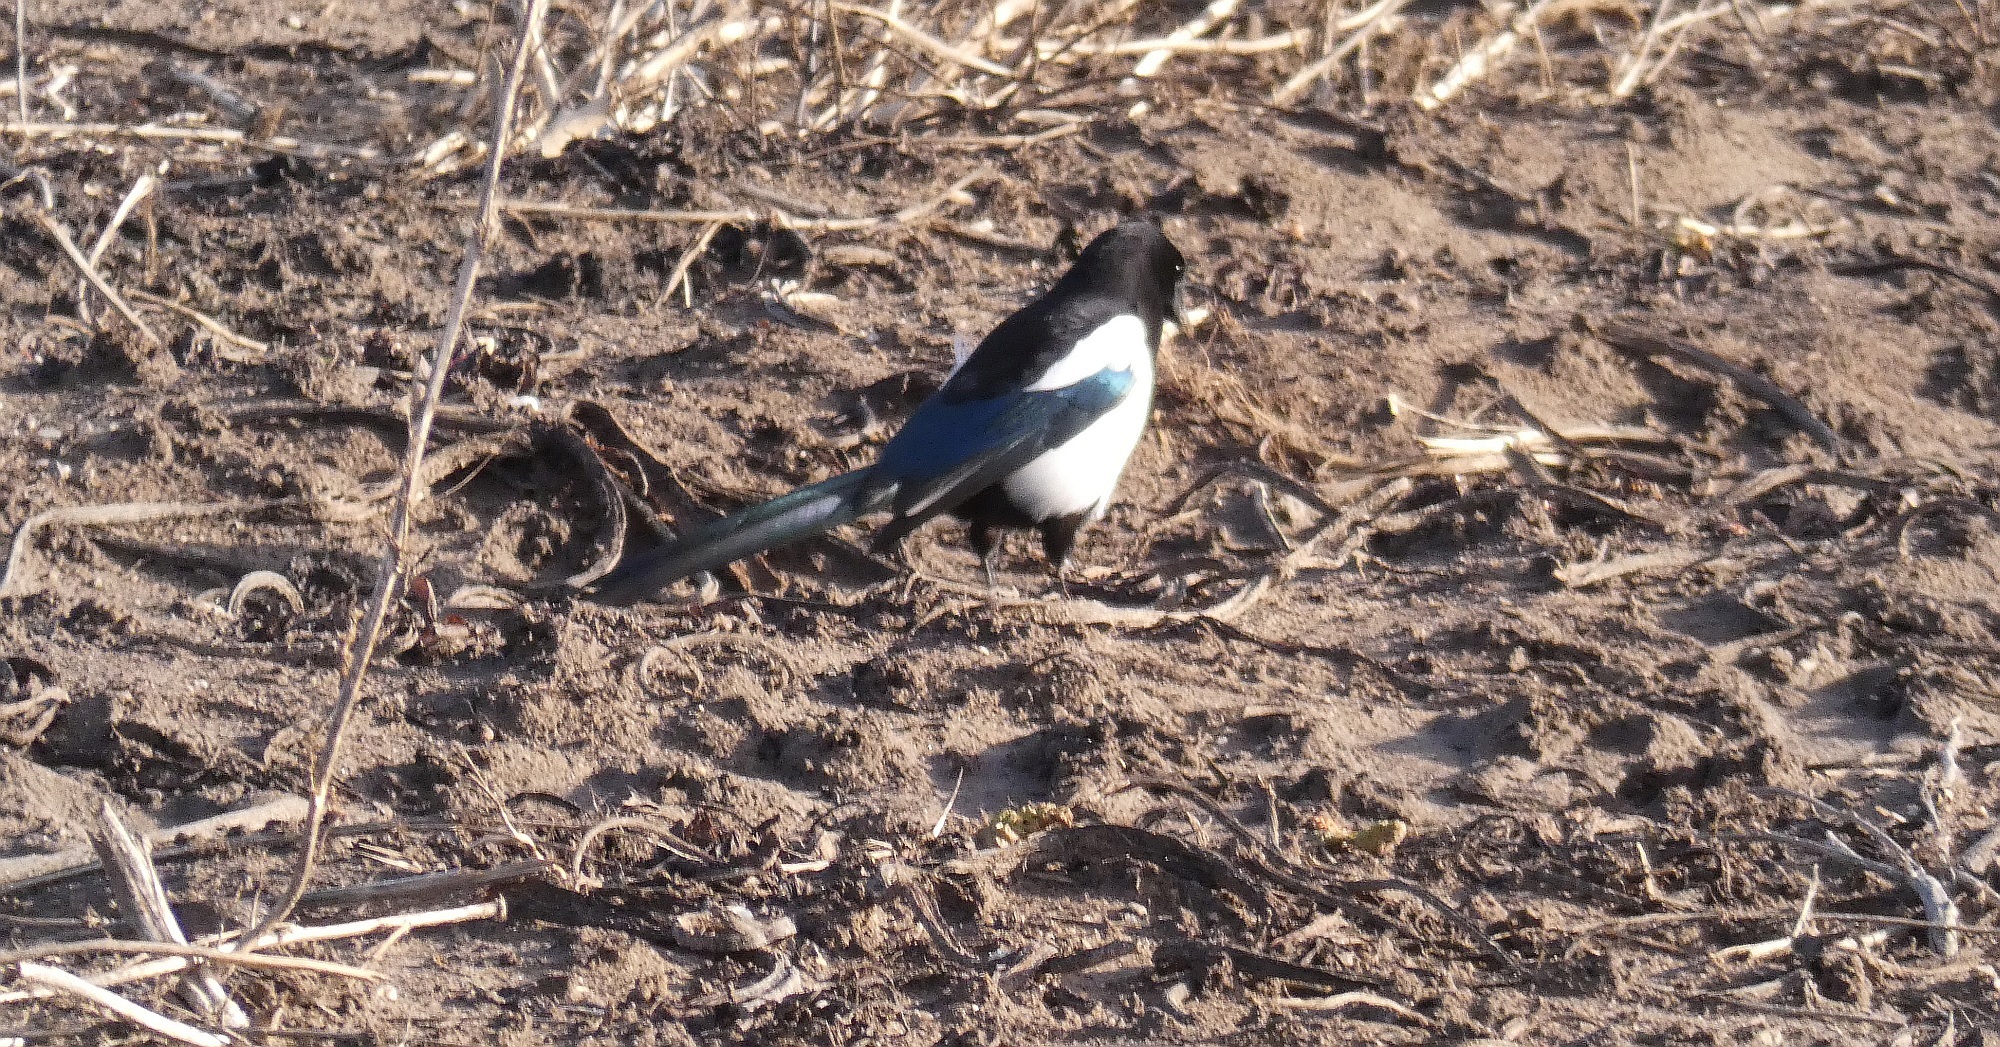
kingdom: Animalia
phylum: Chordata
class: Aves
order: Passeriformes
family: Corvidae
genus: Pica
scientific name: Pica pica
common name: Eurasian magpie
